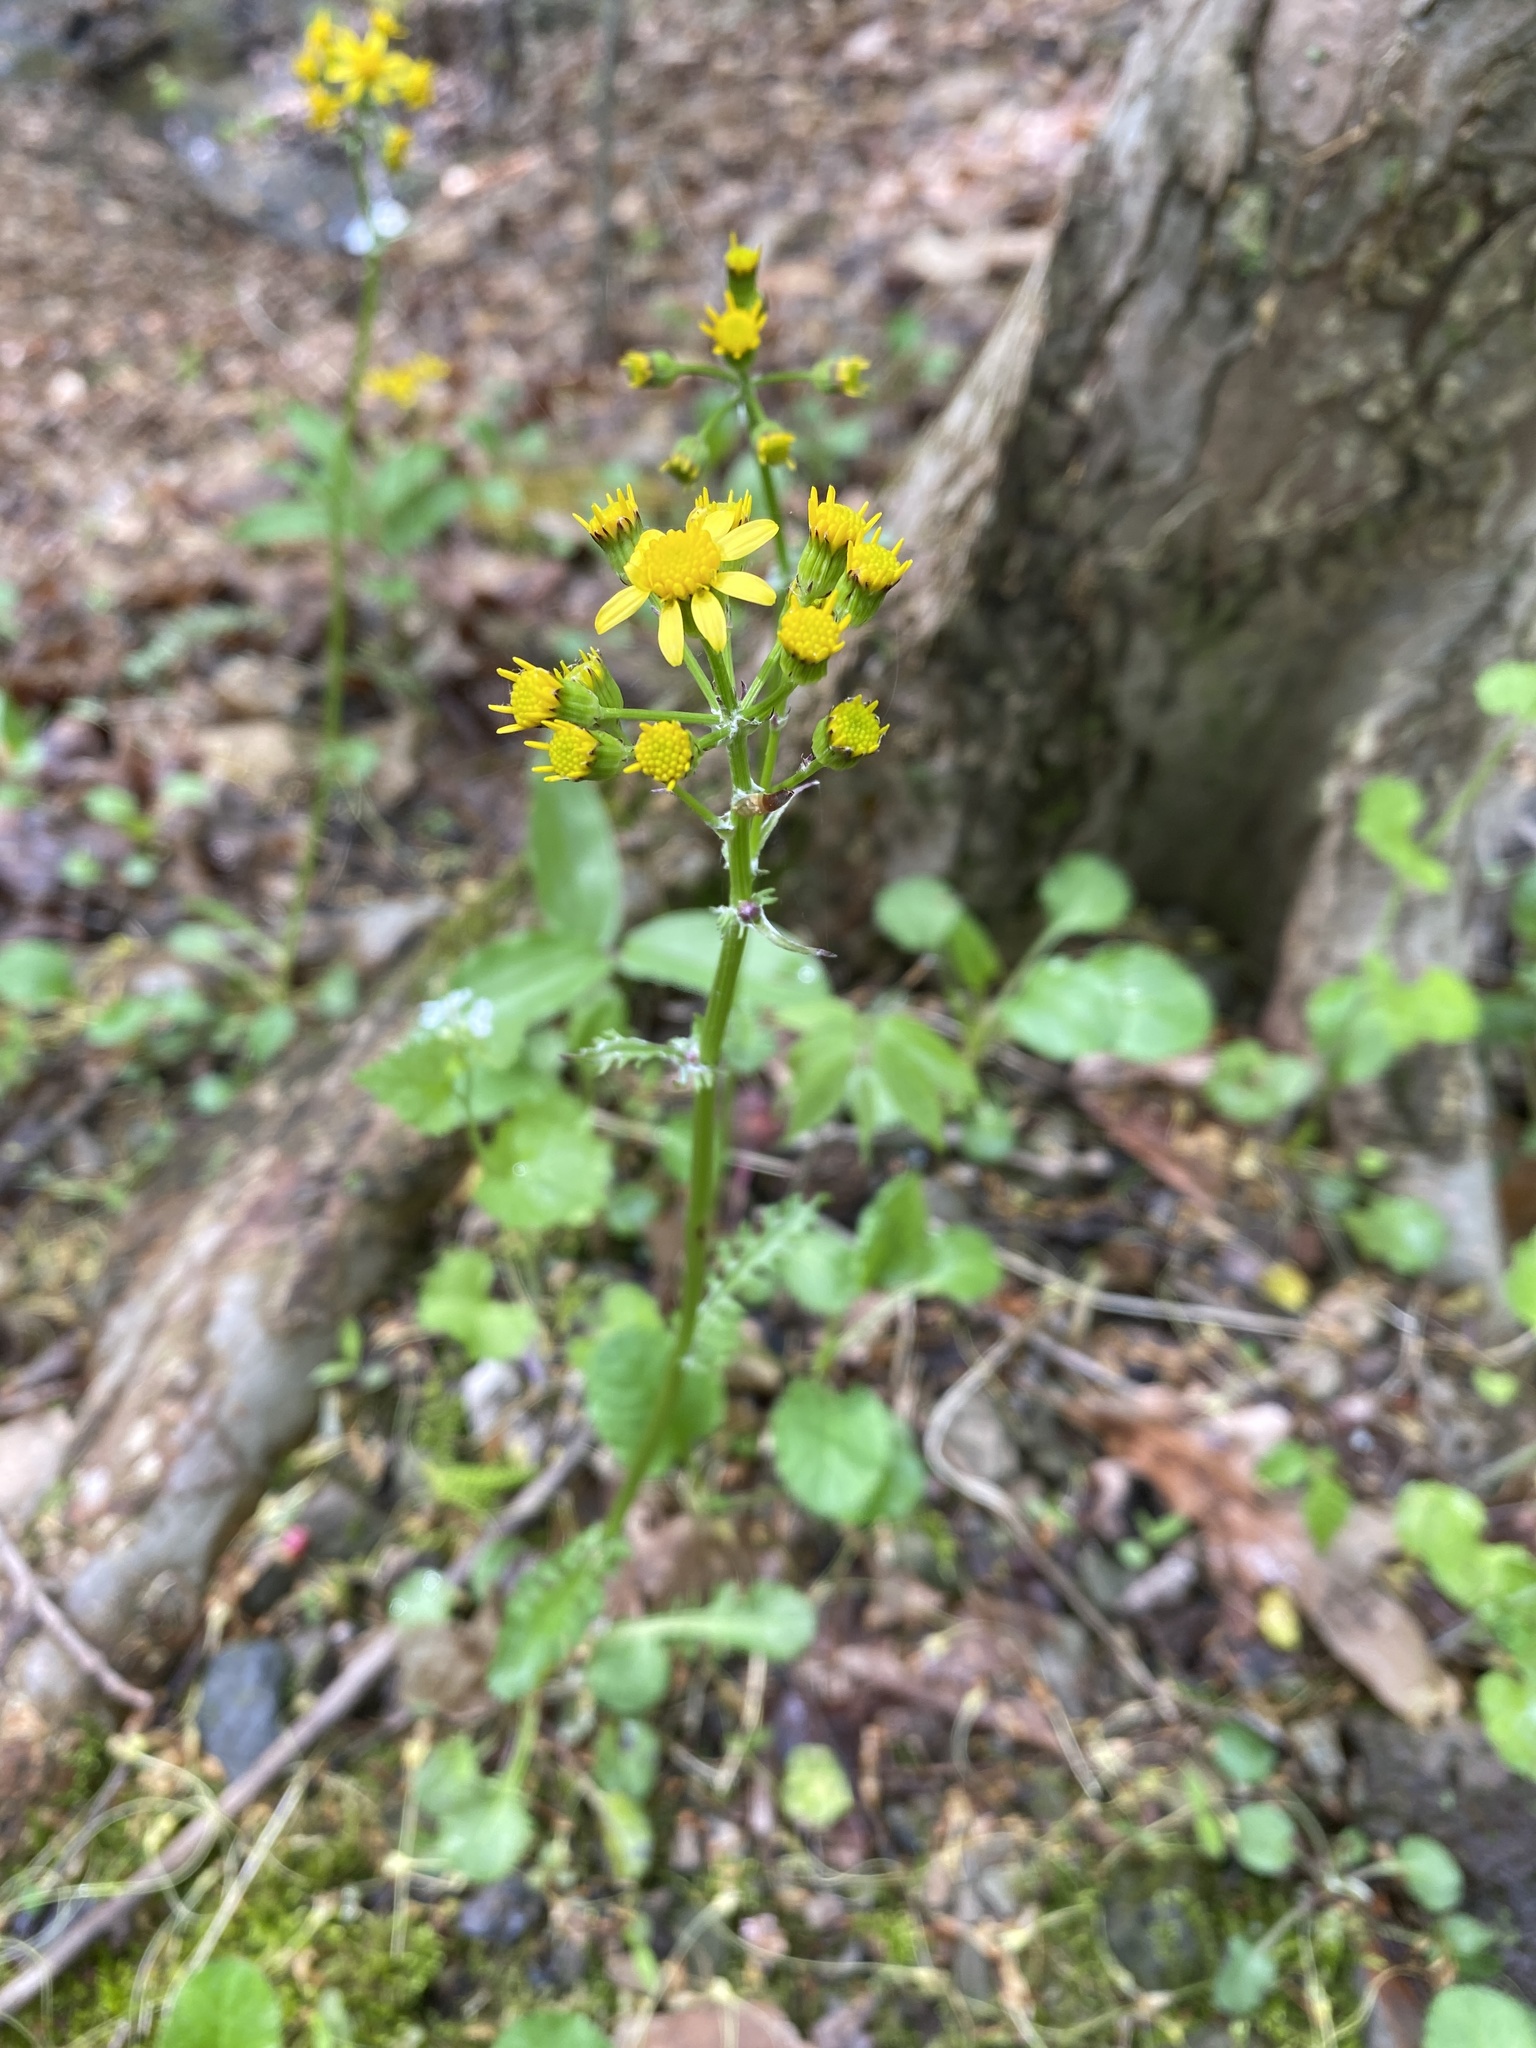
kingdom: Plantae
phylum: Tracheophyta
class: Magnoliopsida
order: Asterales
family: Asteraceae
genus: Packera
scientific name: Packera aurea
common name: Golden groundsel
